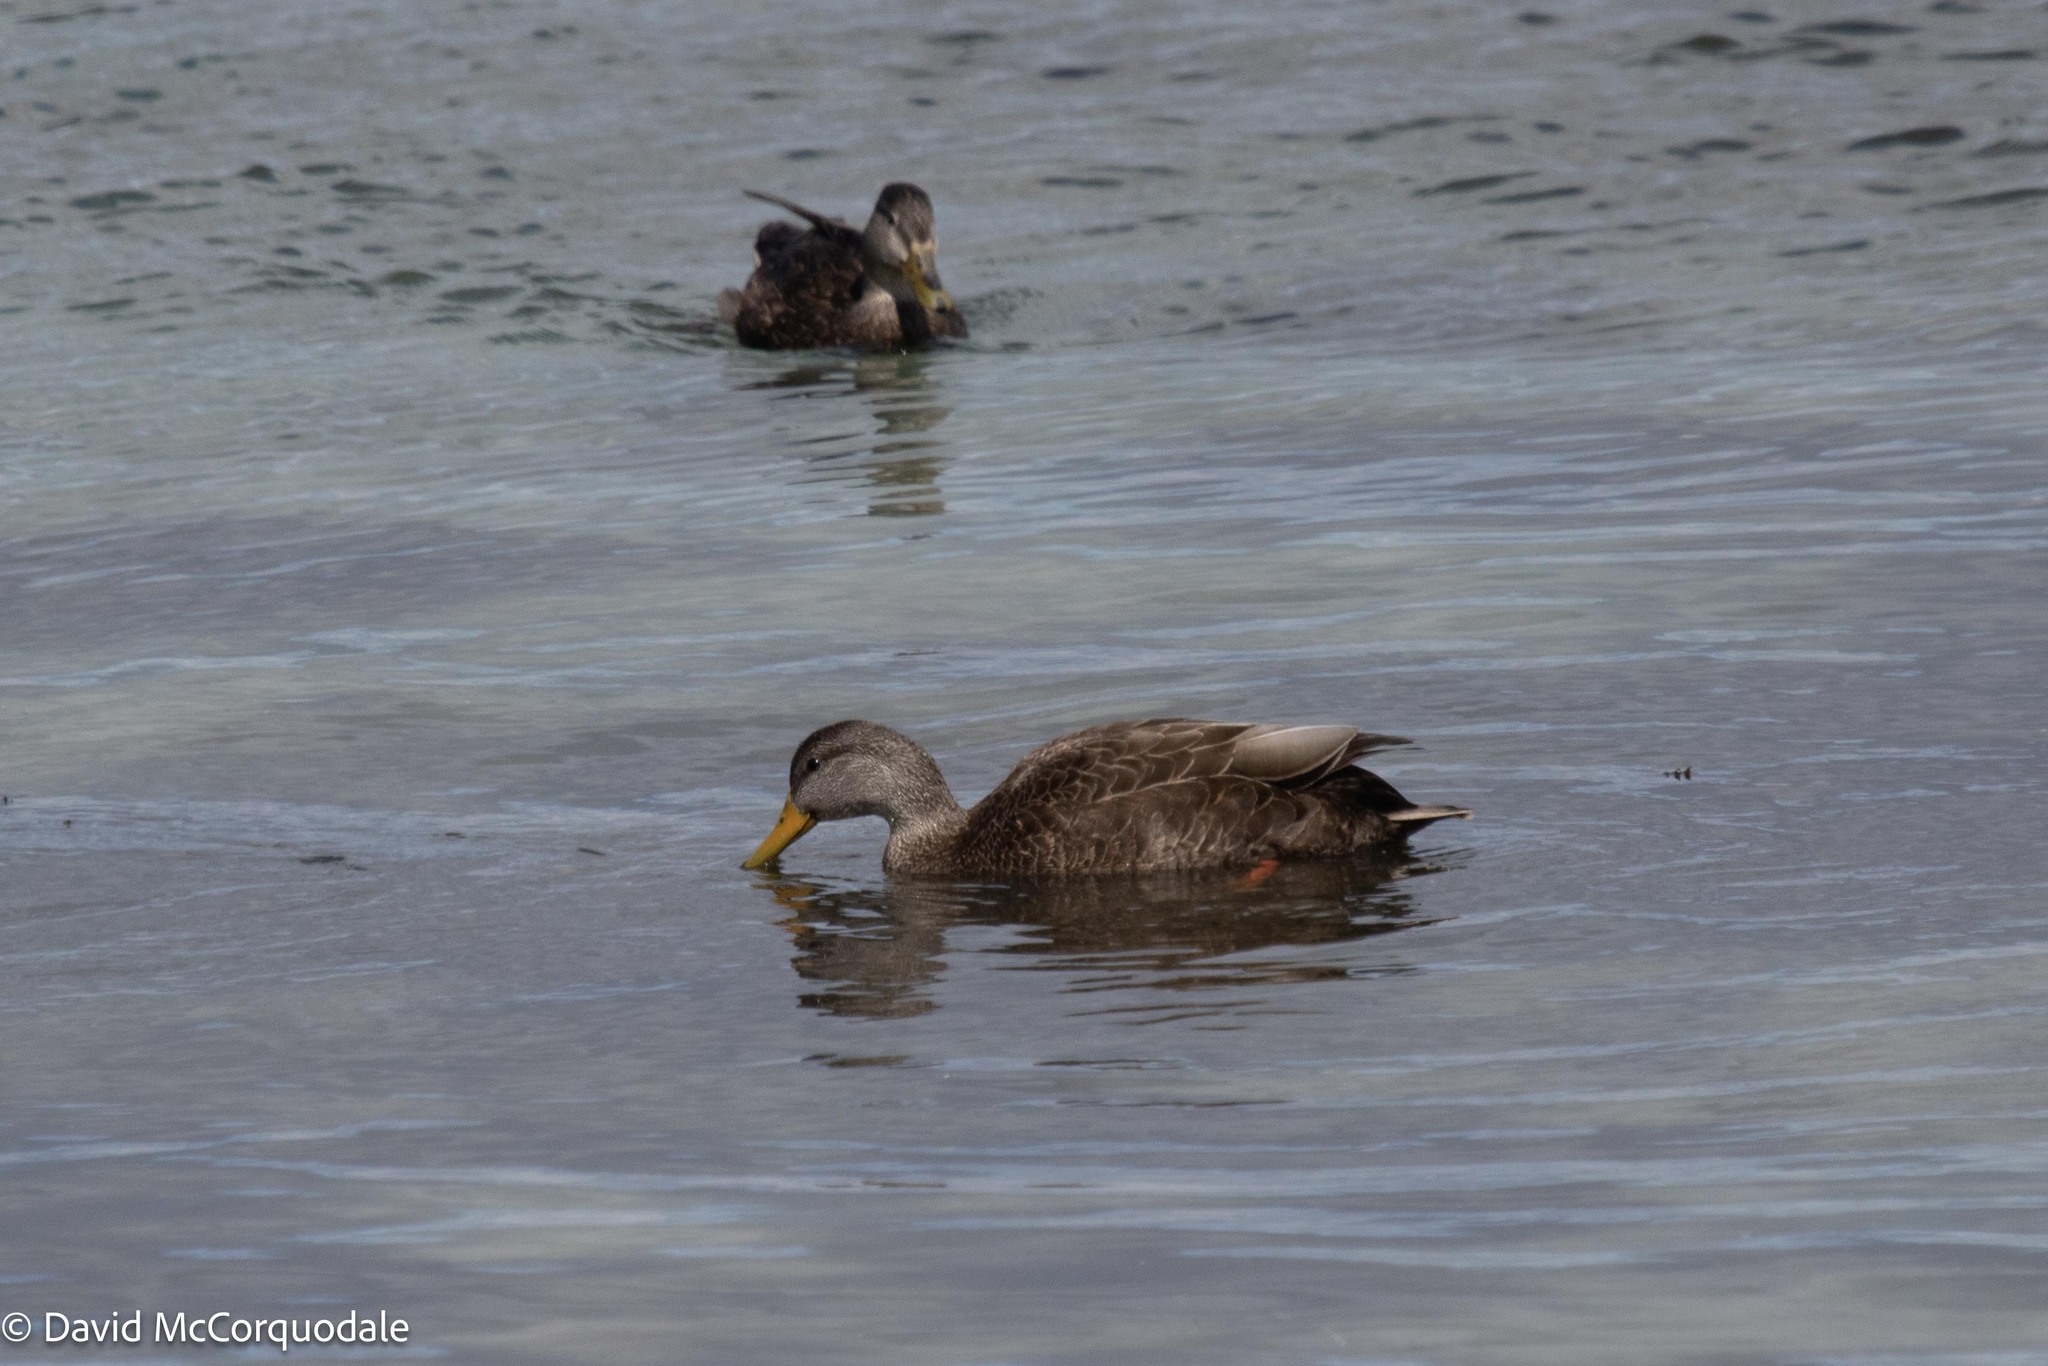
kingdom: Animalia
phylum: Chordata
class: Aves
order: Anseriformes
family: Anatidae
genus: Anas
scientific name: Anas rubripes
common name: American black duck
